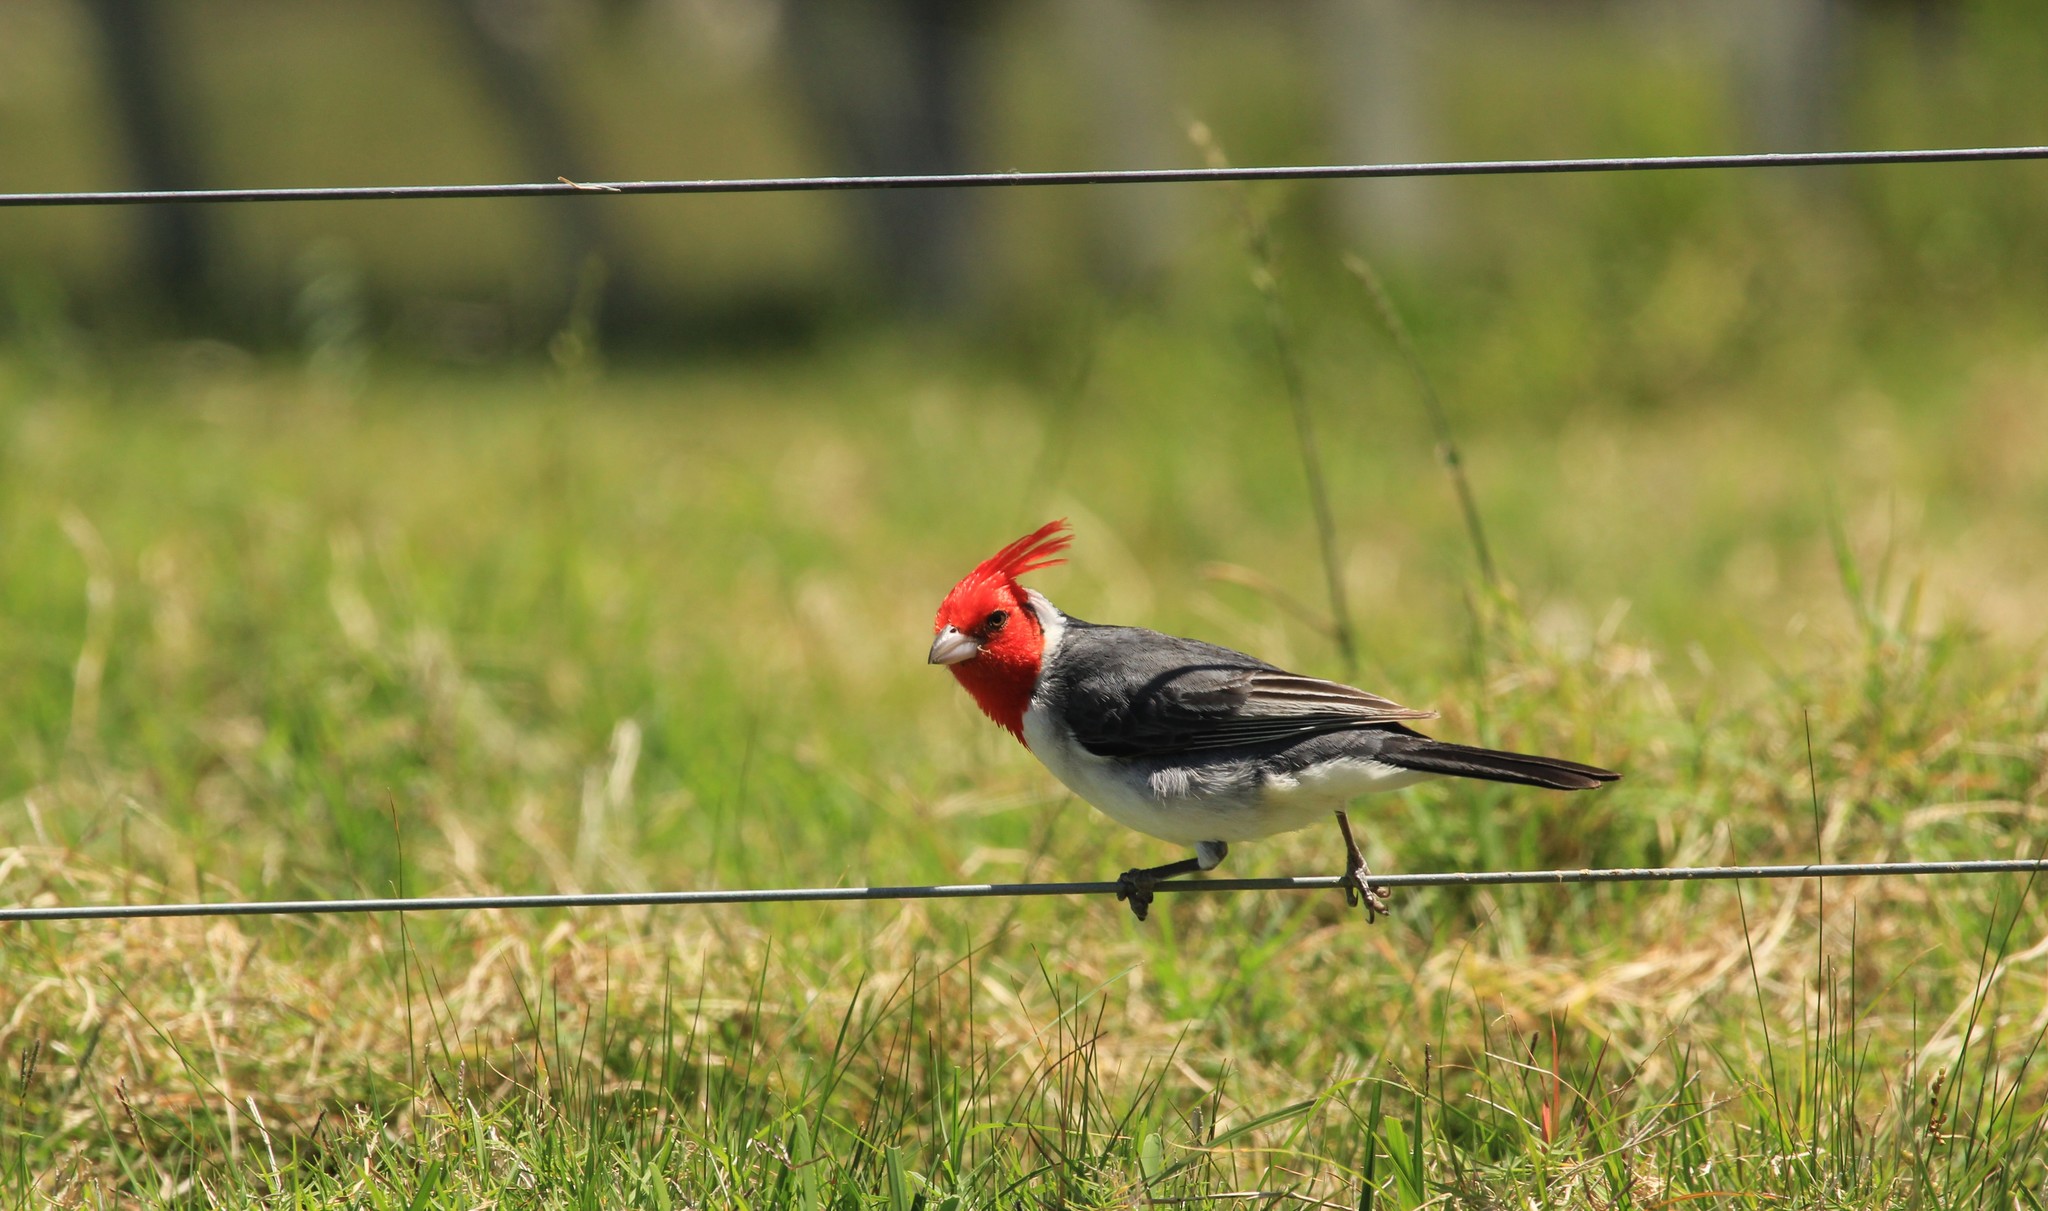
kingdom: Animalia
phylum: Chordata
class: Aves
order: Passeriformes
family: Thraupidae
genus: Paroaria
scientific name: Paroaria coronata
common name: Red-crested cardinal
